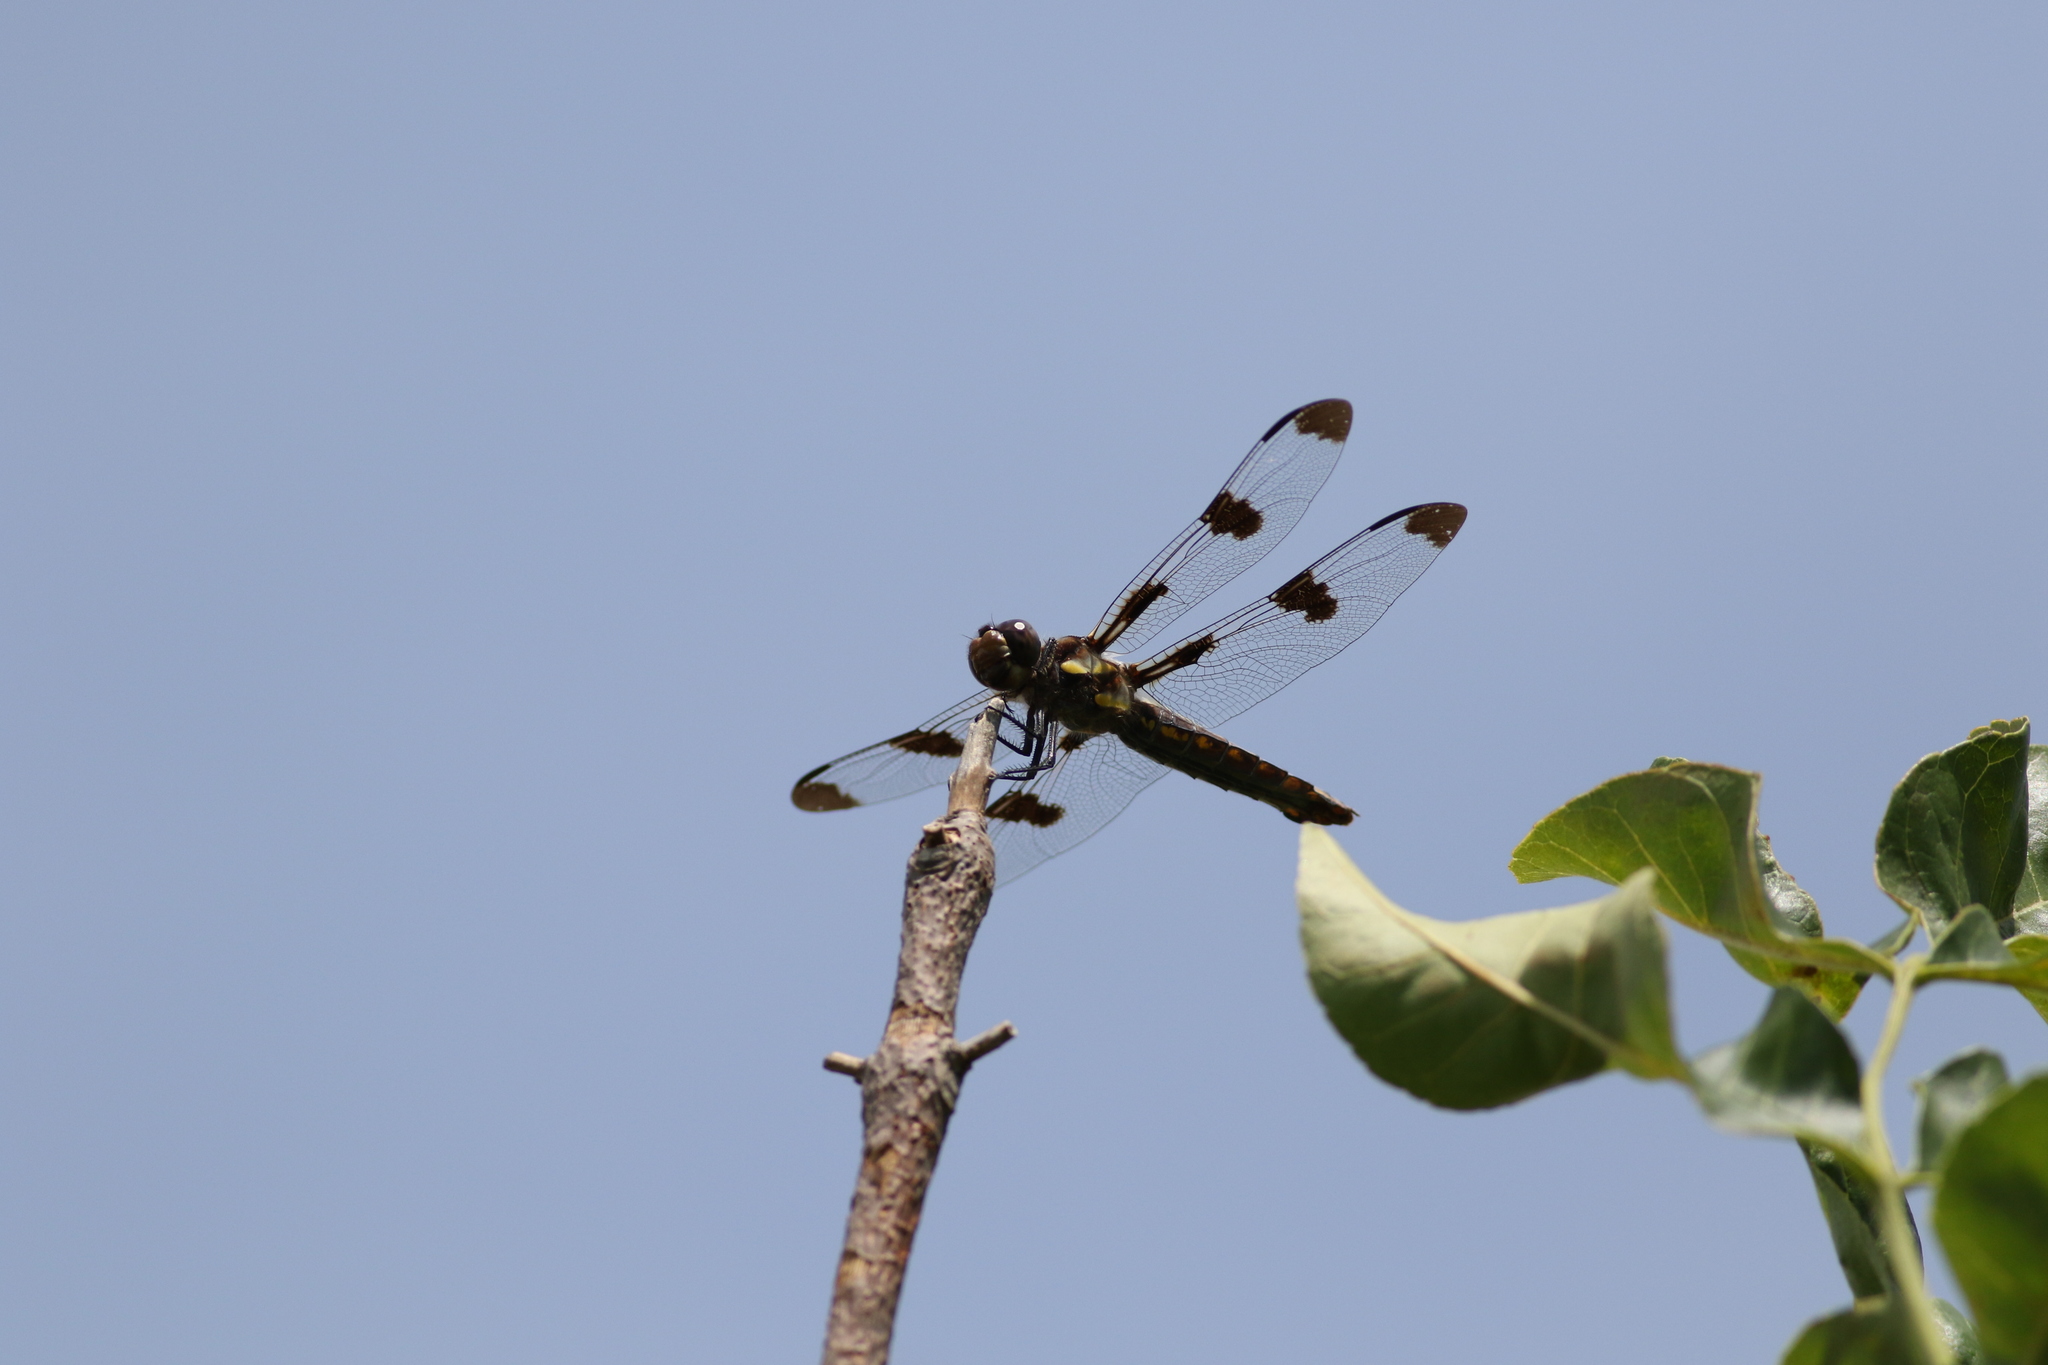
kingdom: Animalia
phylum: Arthropoda
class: Insecta
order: Odonata
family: Libellulidae
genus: Libellula
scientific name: Libellula pulchella
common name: Twelve-spotted skimmer
